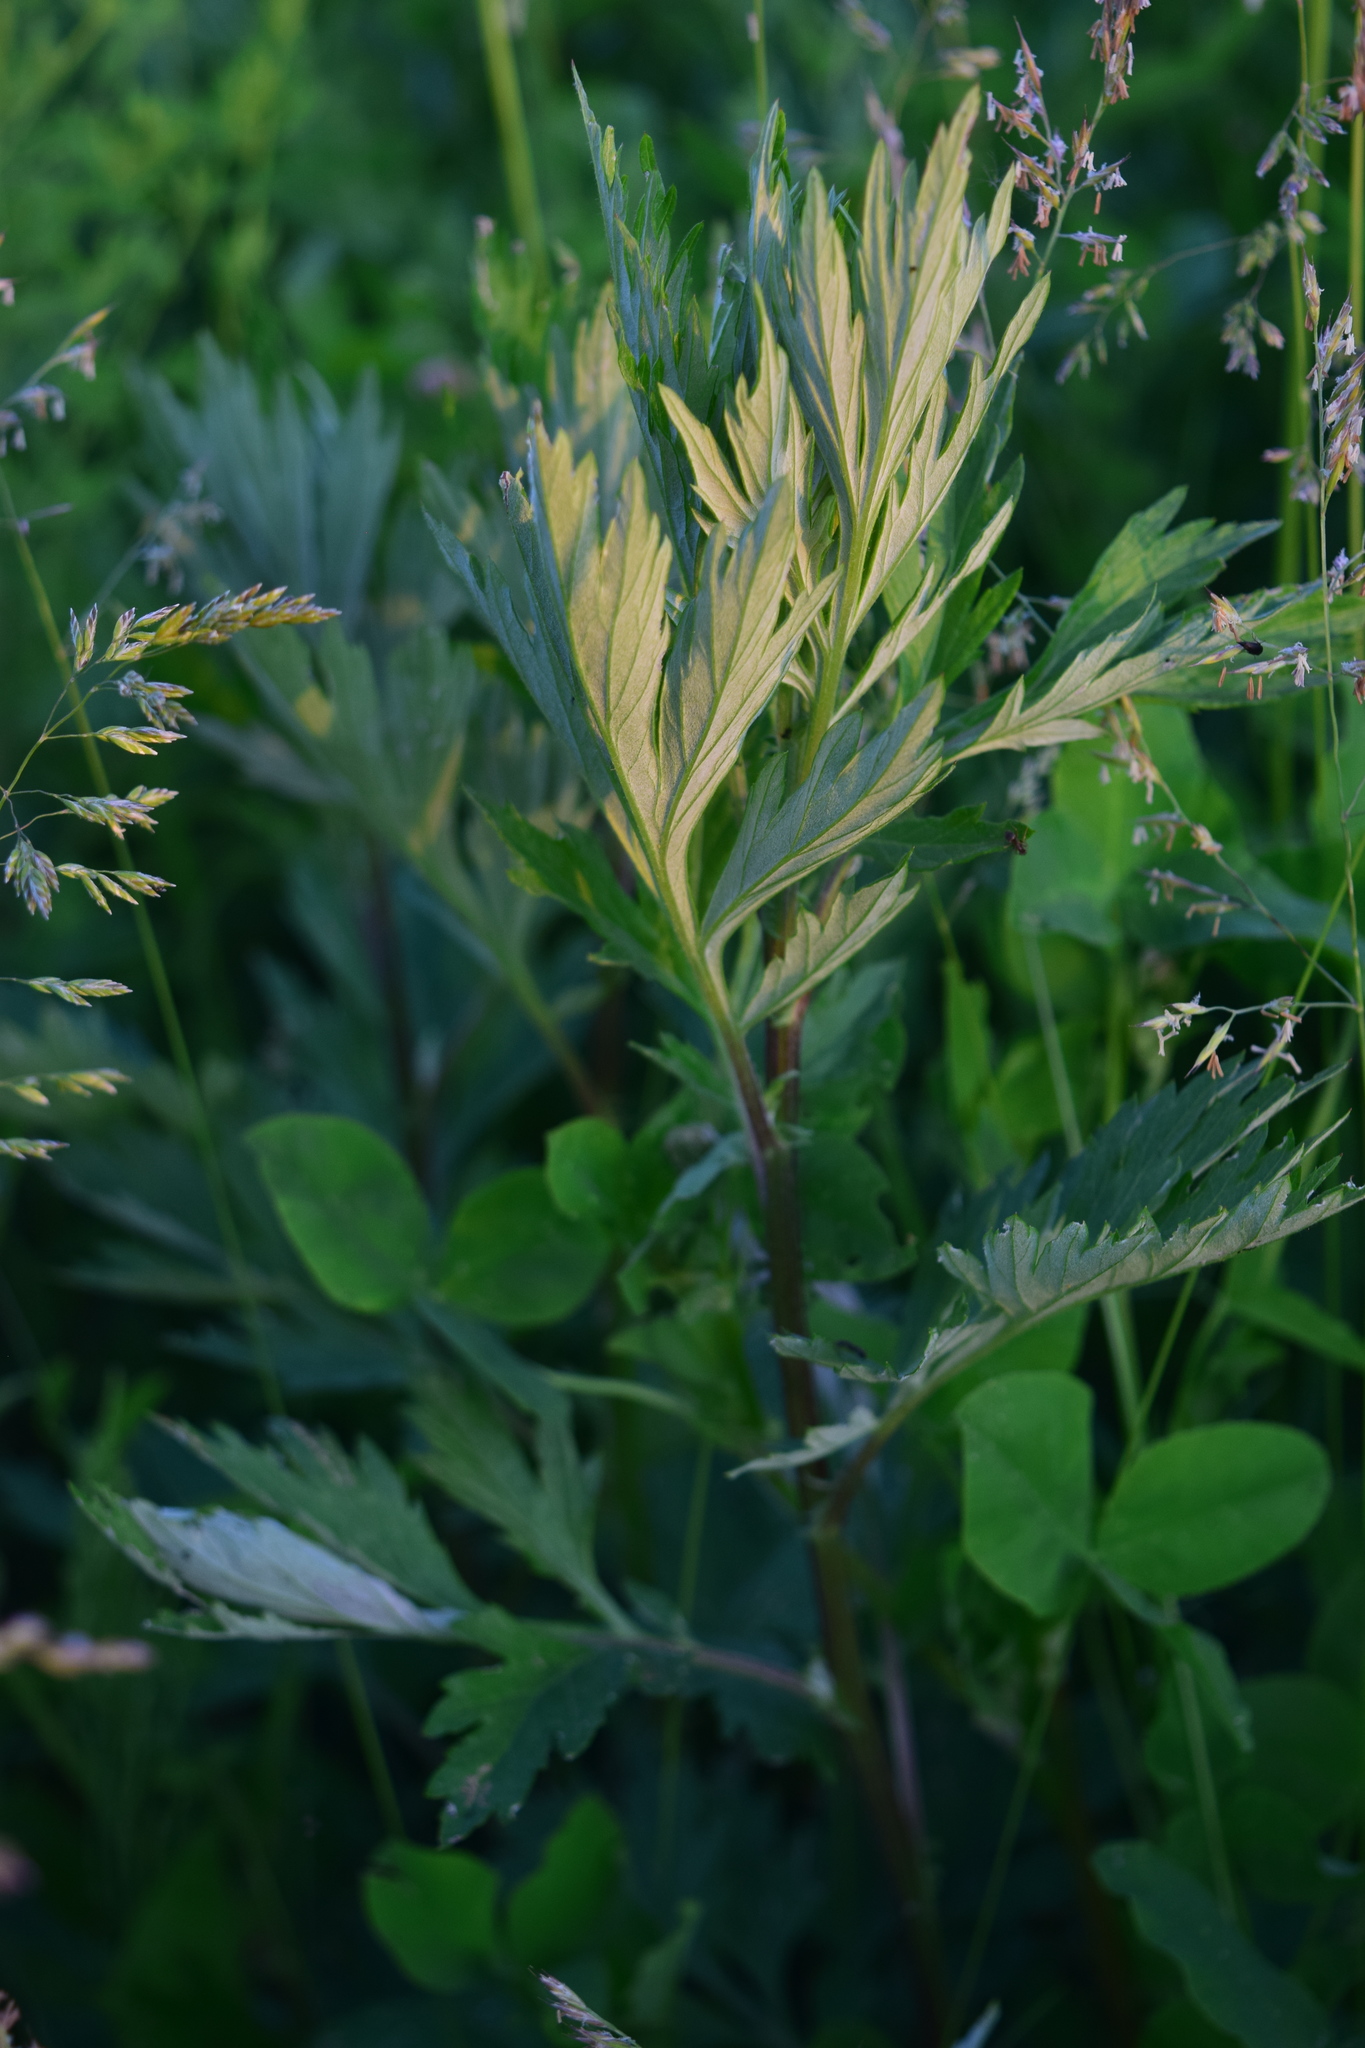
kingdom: Plantae
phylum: Tracheophyta
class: Magnoliopsida
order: Asterales
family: Asteraceae
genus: Artemisia
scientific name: Artemisia vulgaris
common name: Mugwort
